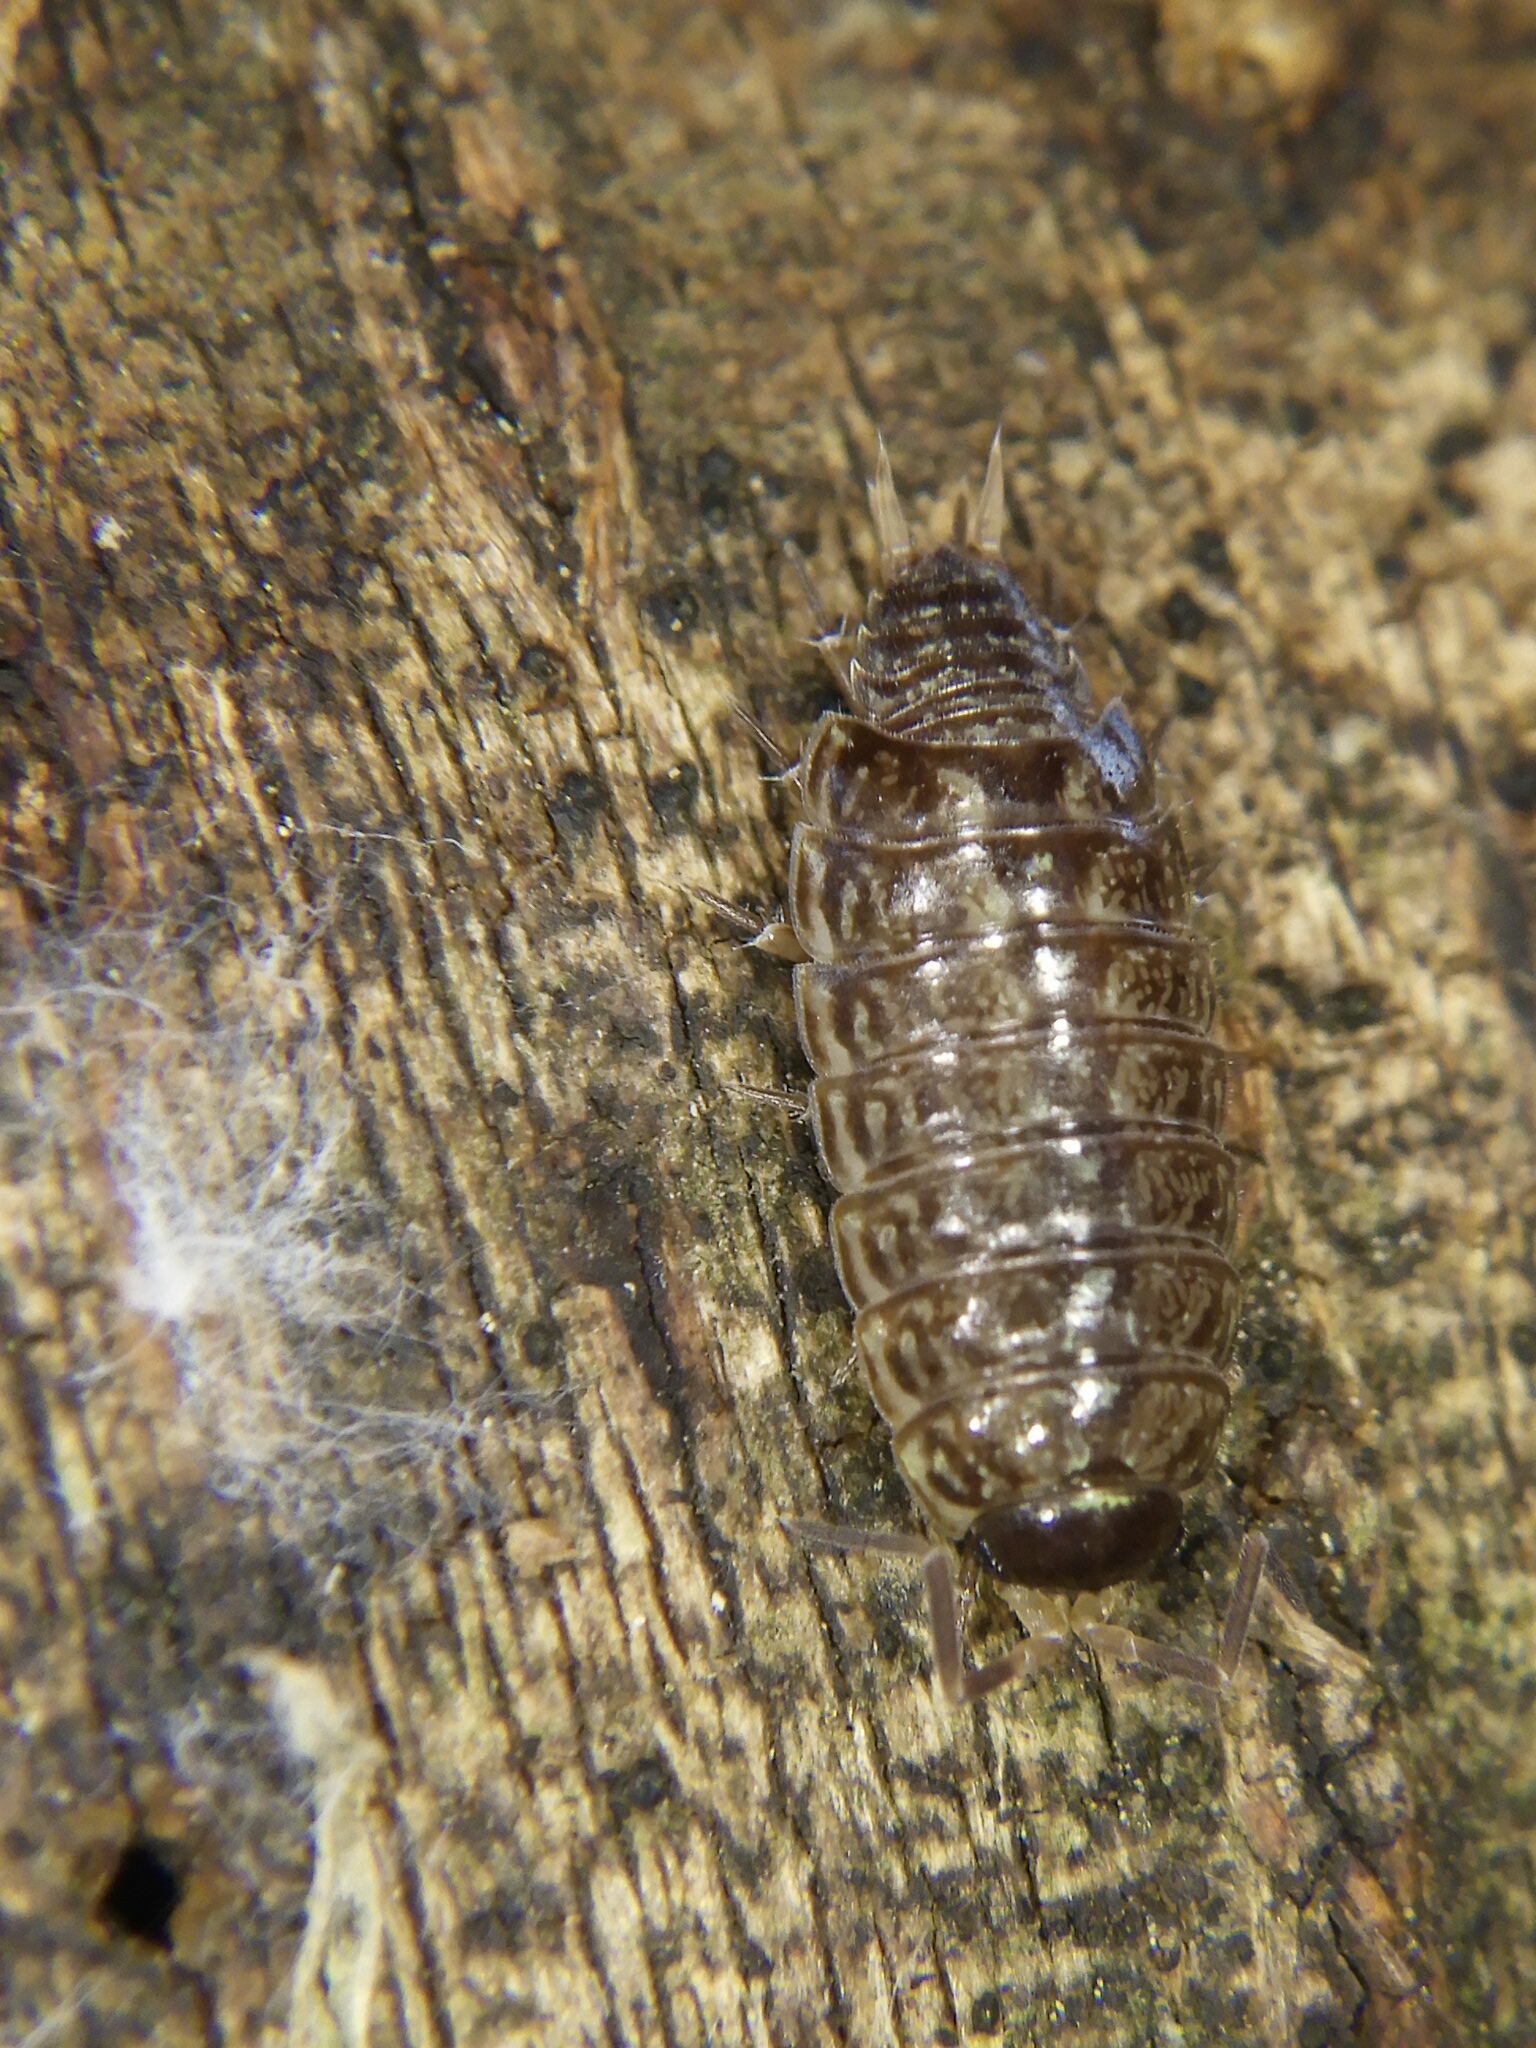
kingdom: Animalia
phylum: Arthropoda
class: Malacostraca
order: Isopoda
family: Philosciidae
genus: Philoscia
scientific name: Philoscia muscorum
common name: Common striped woodlouse
